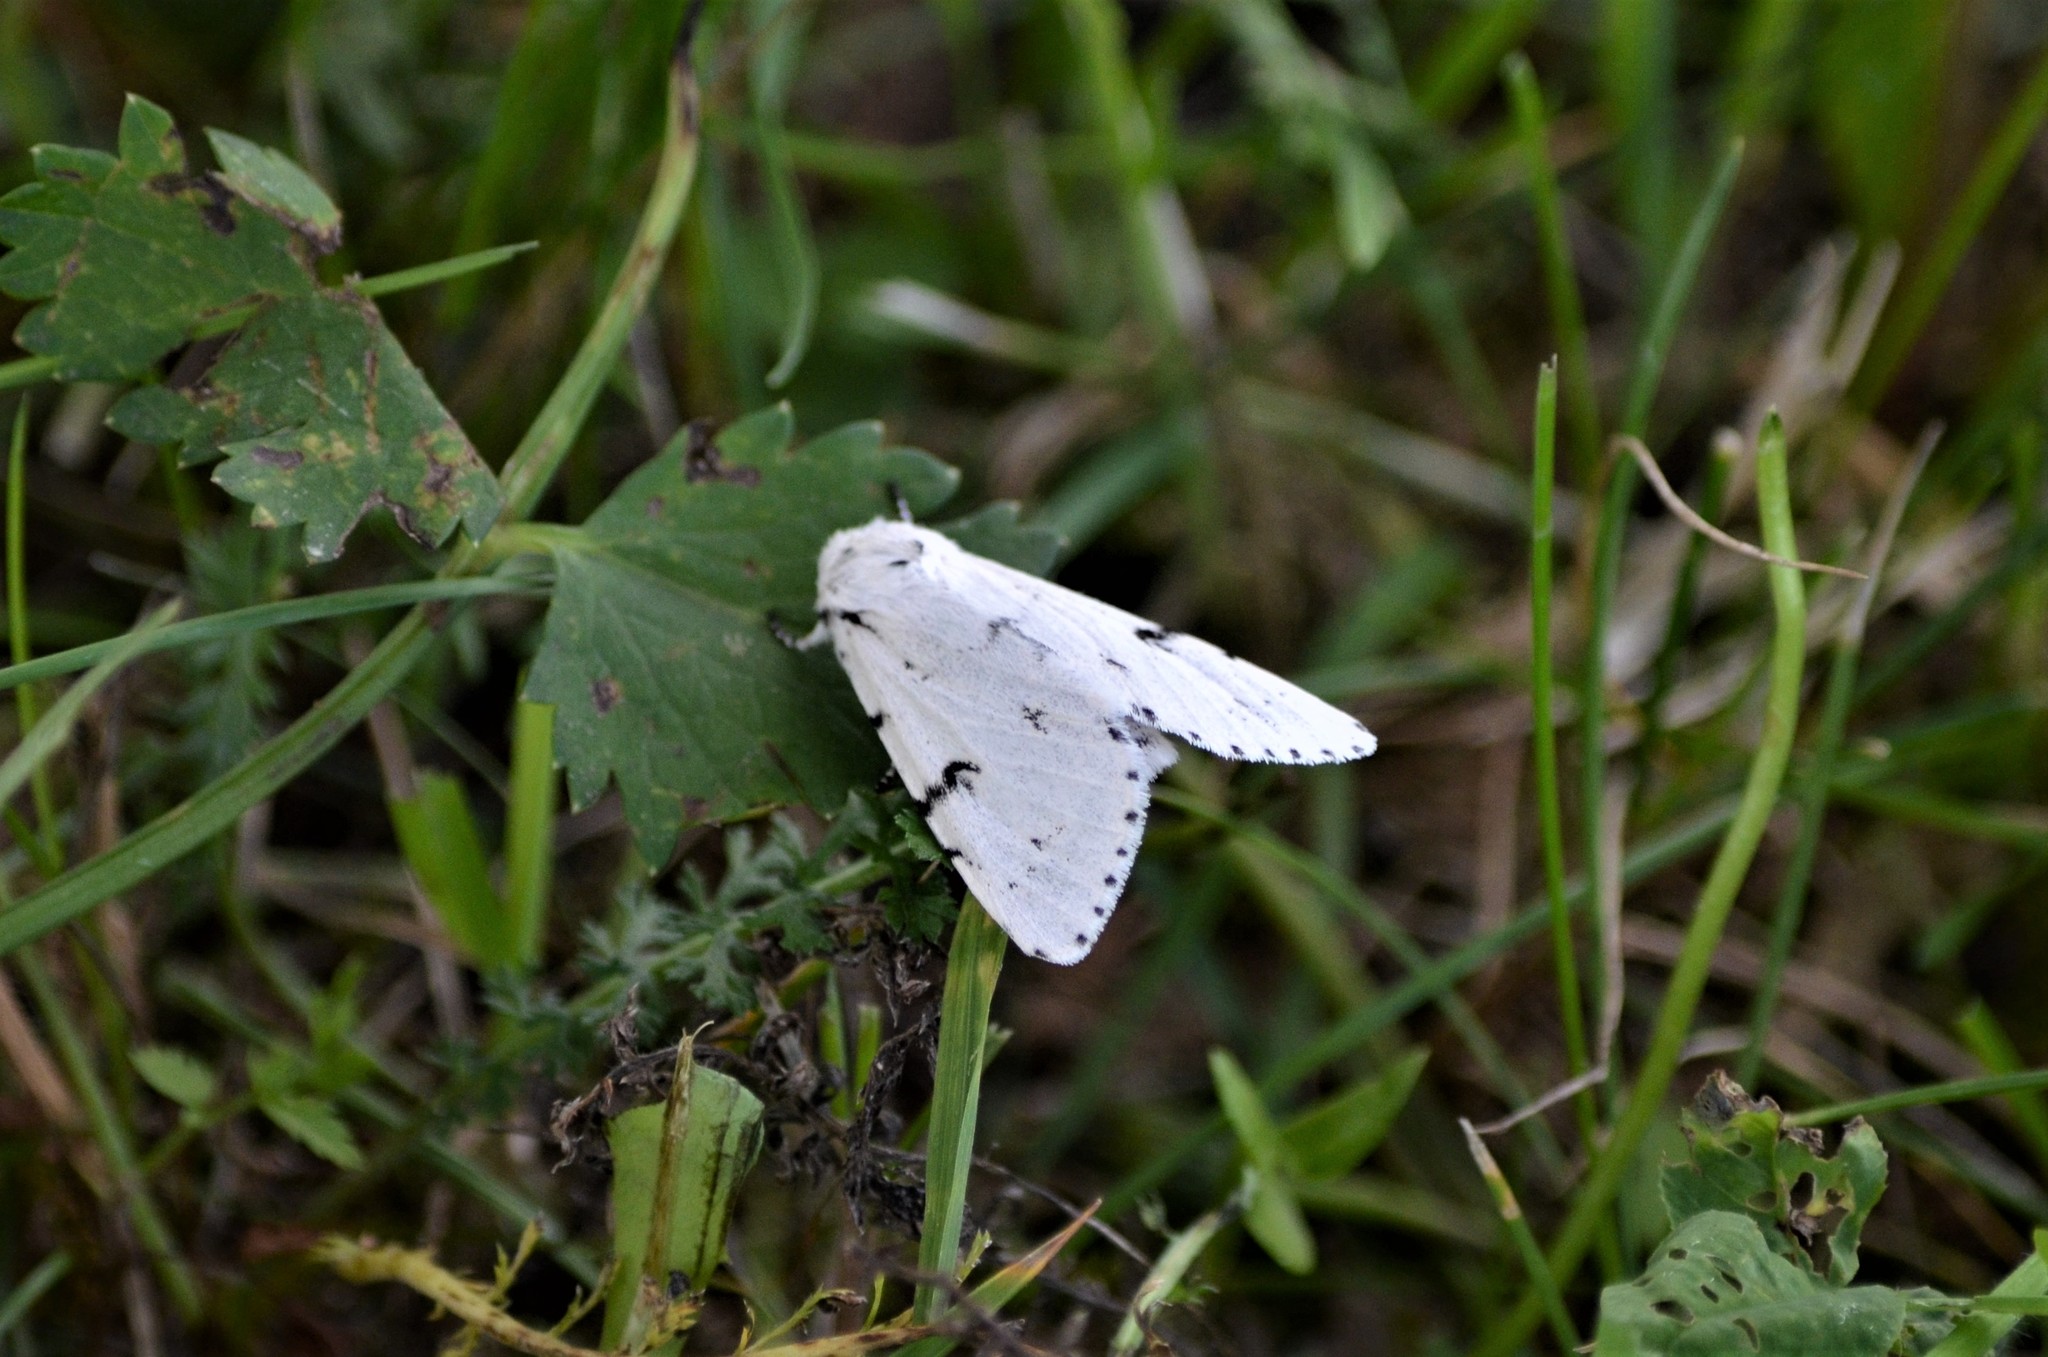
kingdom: Animalia
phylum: Arthropoda
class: Insecta
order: Lepidoptera
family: Noctuidae
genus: Acronicta
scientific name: Acronicta leporina
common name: Miller
